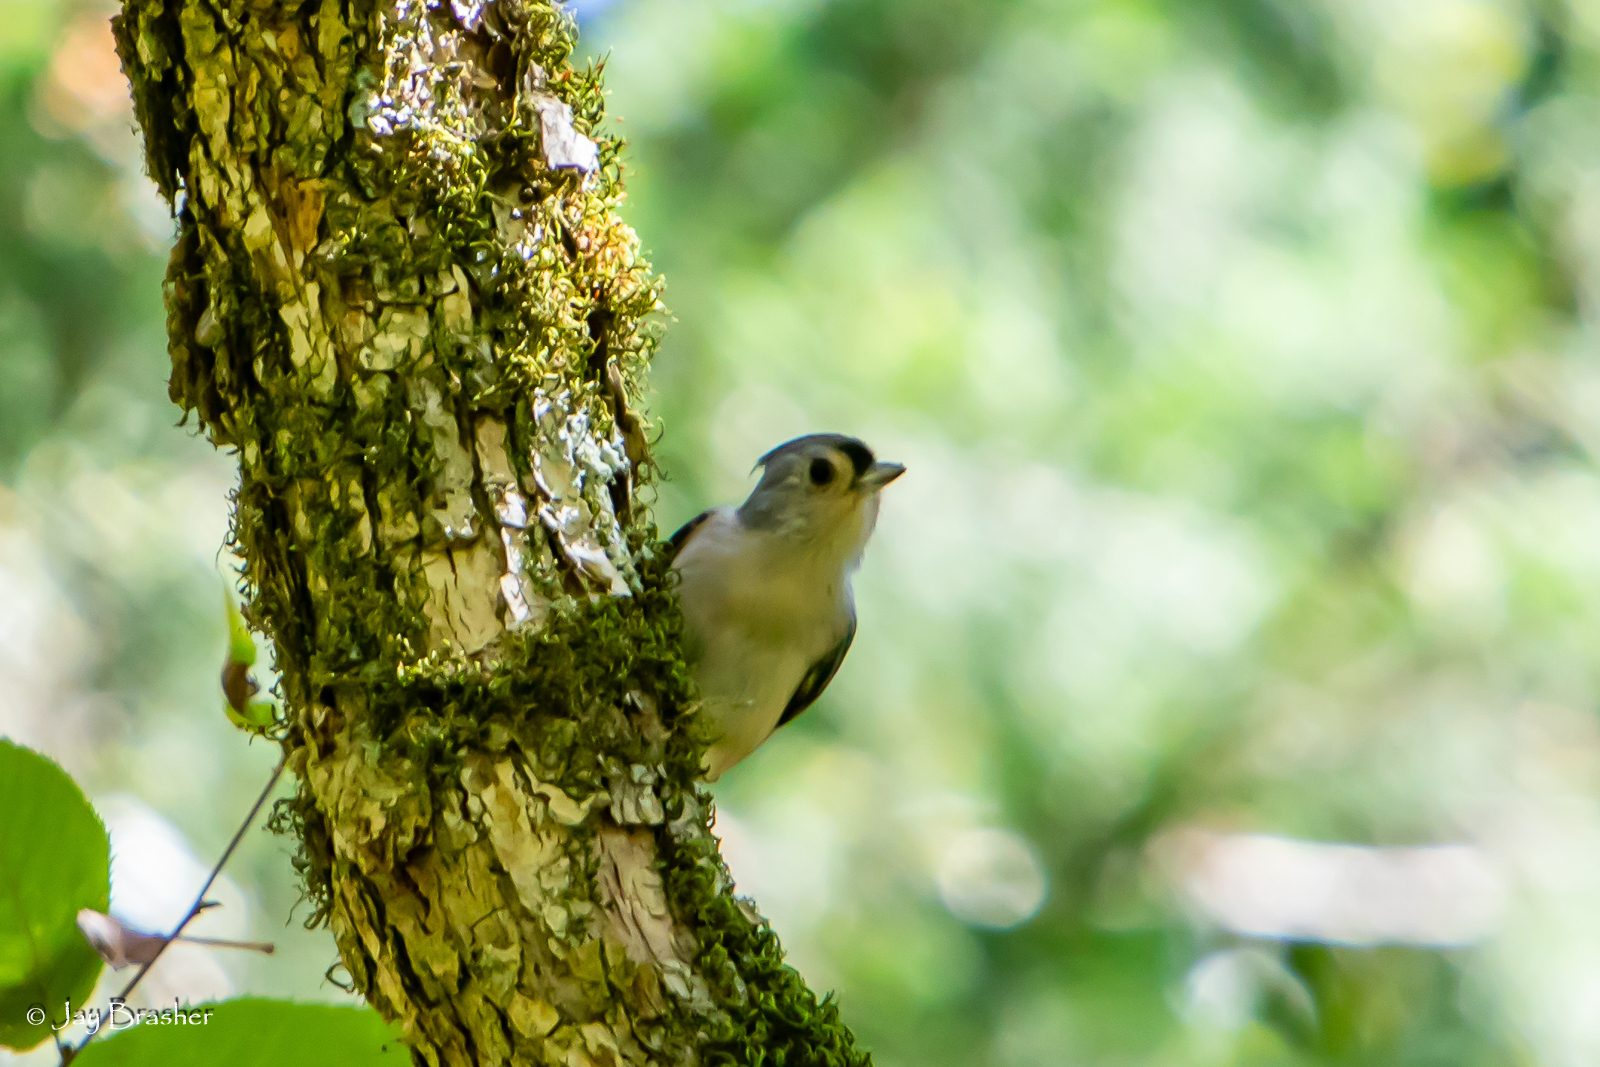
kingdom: Animalia
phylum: Chordata
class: Aves
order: Passeriformes
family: Paridae
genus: Baeolophus
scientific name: Baeolophus bicolor
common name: Tufted titmouse
